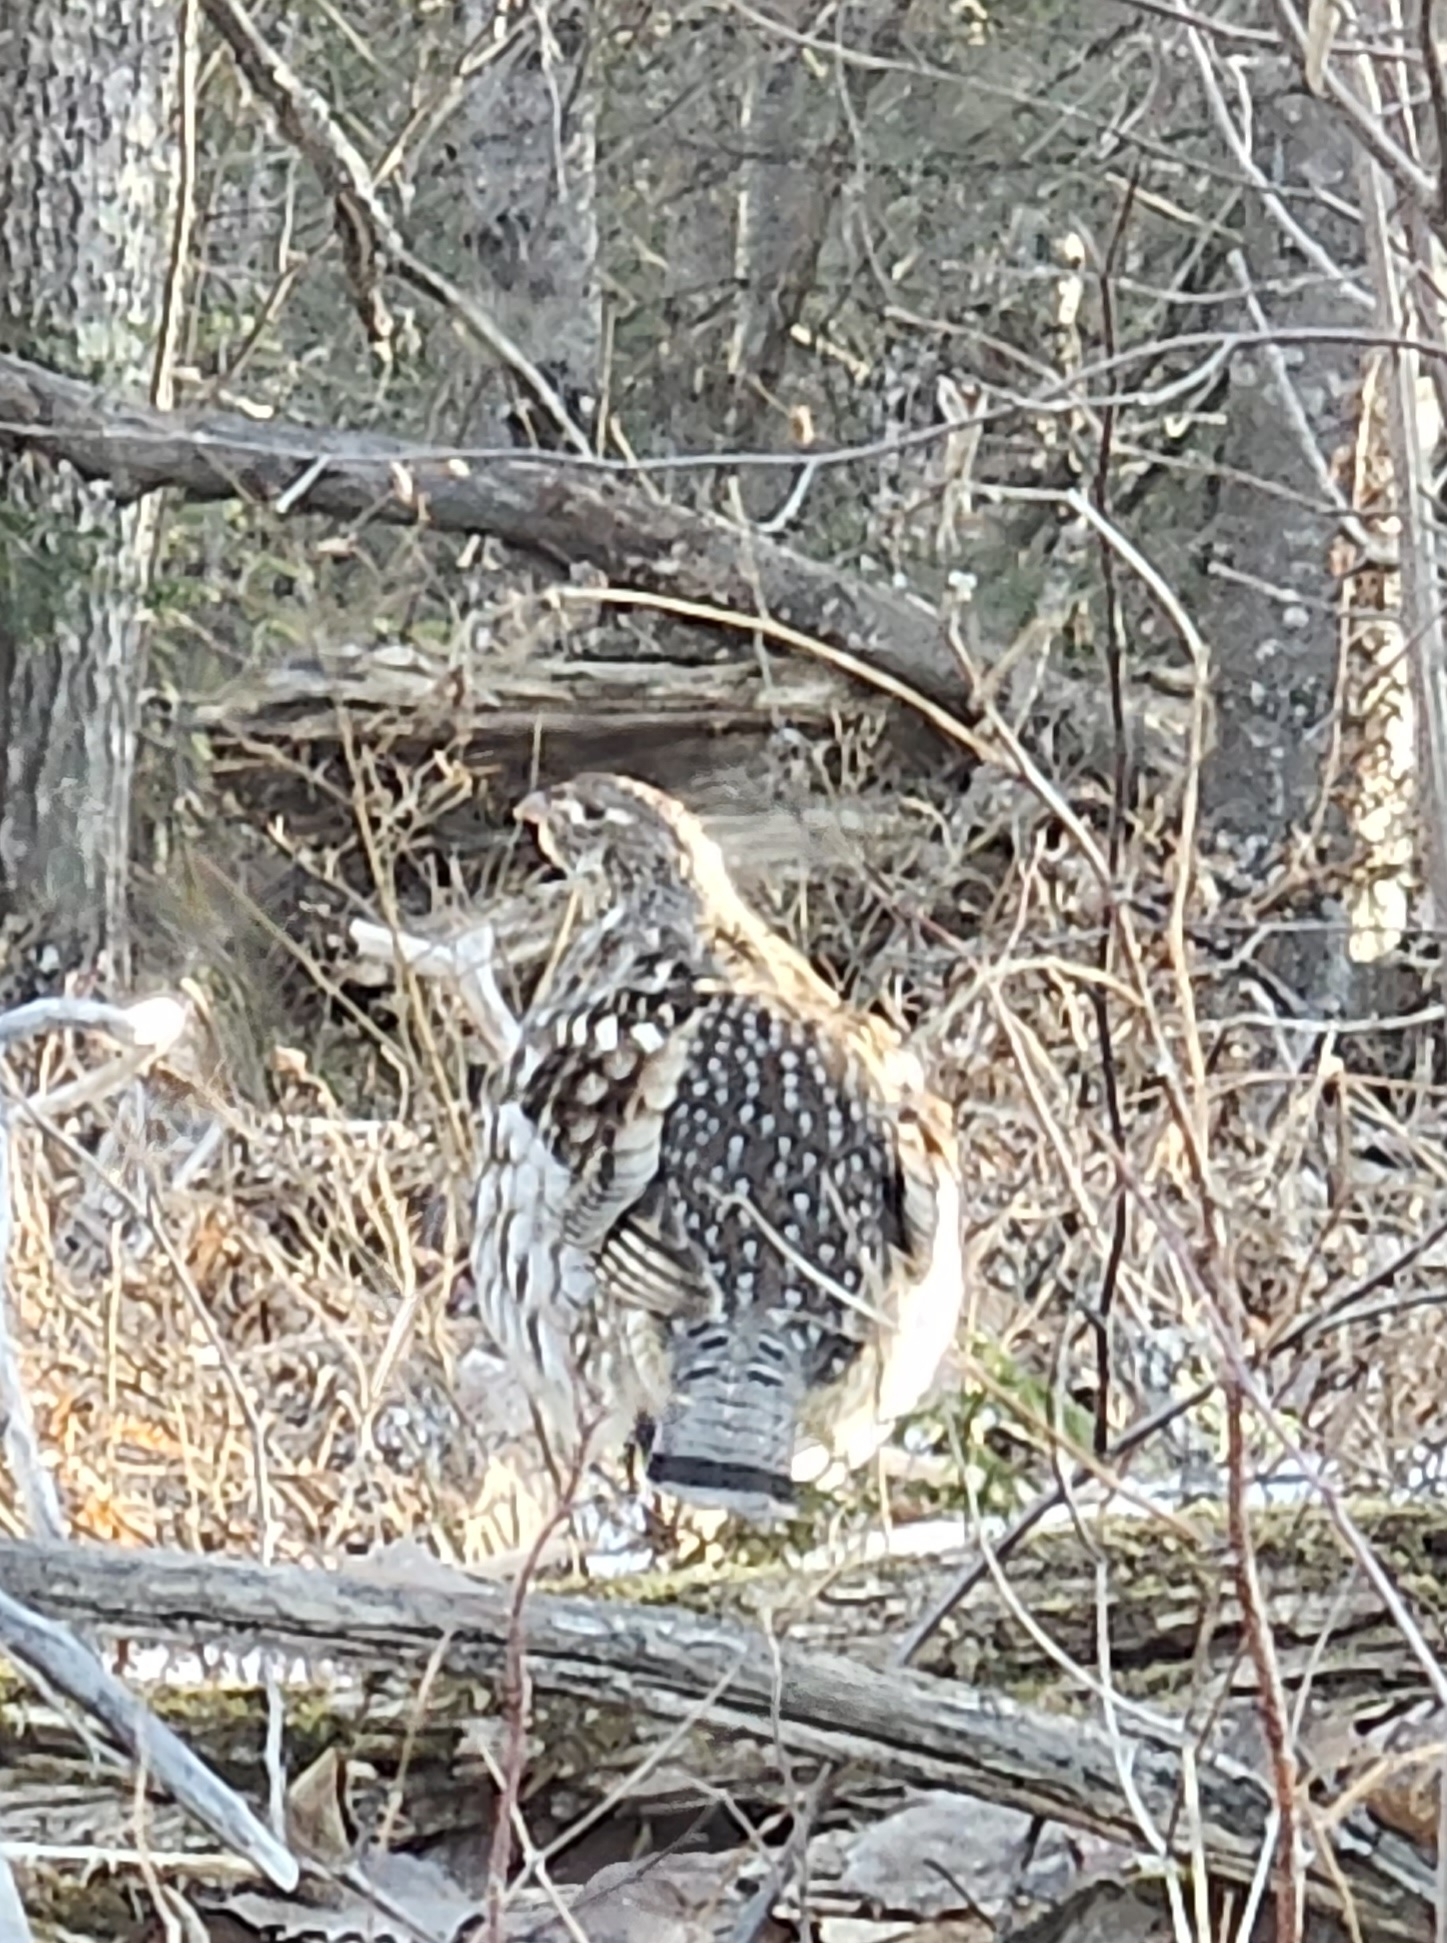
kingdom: Animalia
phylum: Chordata
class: Aves
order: Galliformes
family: Phasianidae
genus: Bonasa
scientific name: Bonasa umbellus
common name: Ruffed grouse
